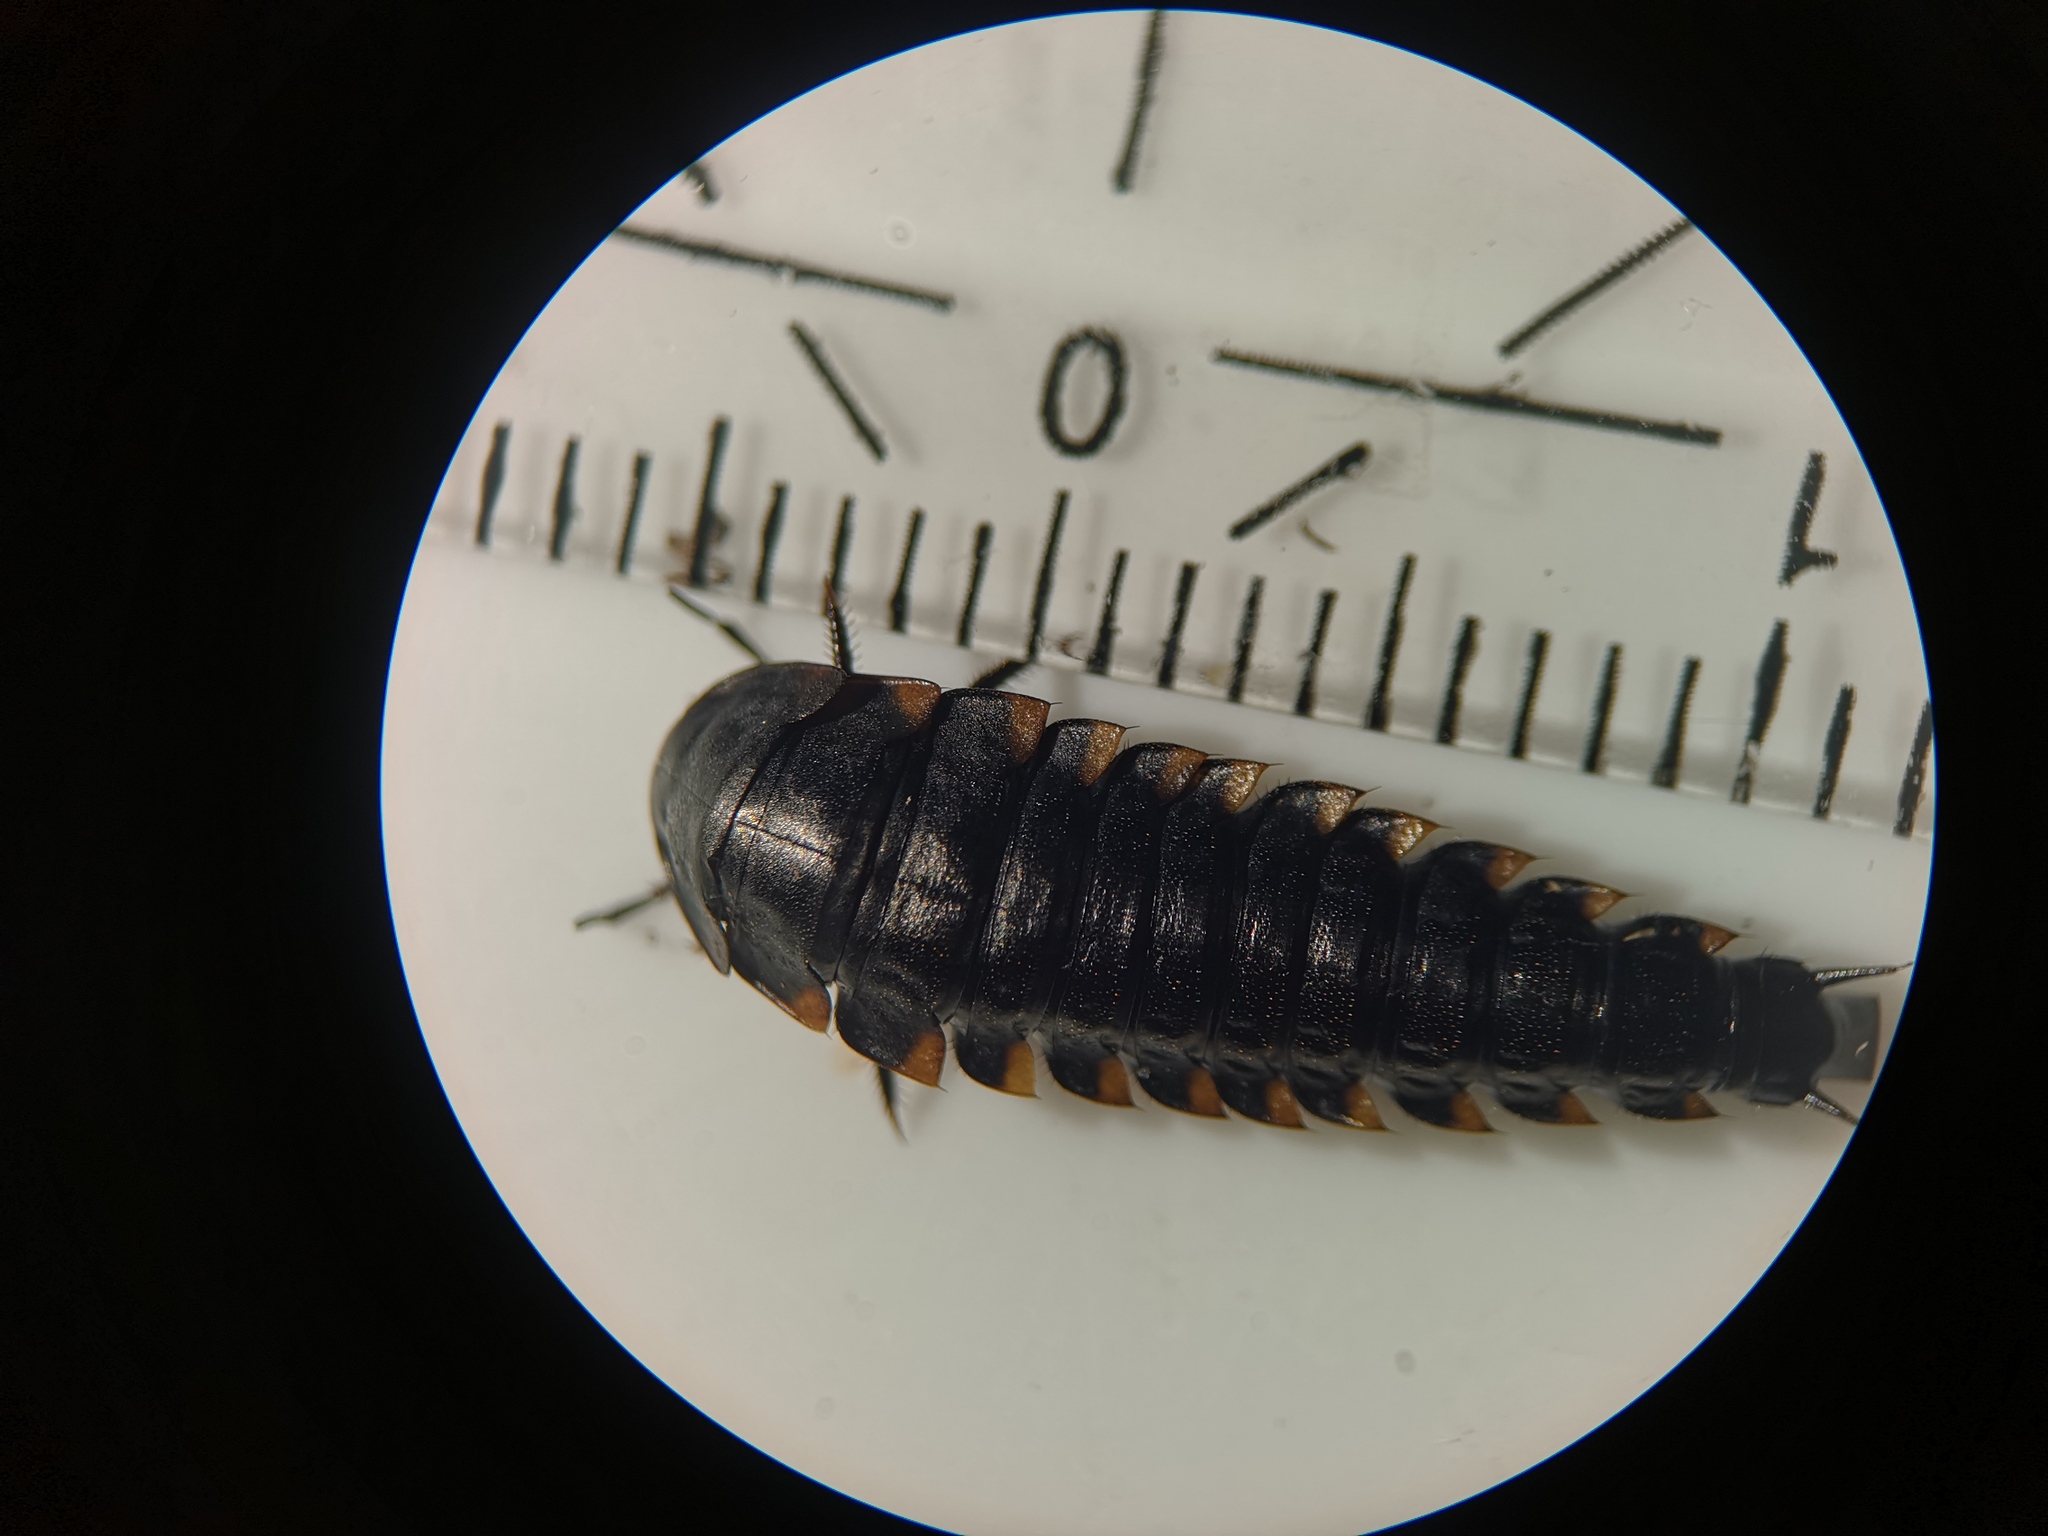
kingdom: Animalia
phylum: Arthropoda
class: Insecta
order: Coleoptera
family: Staphylinidae
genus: Silpha
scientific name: Silpha tristis
